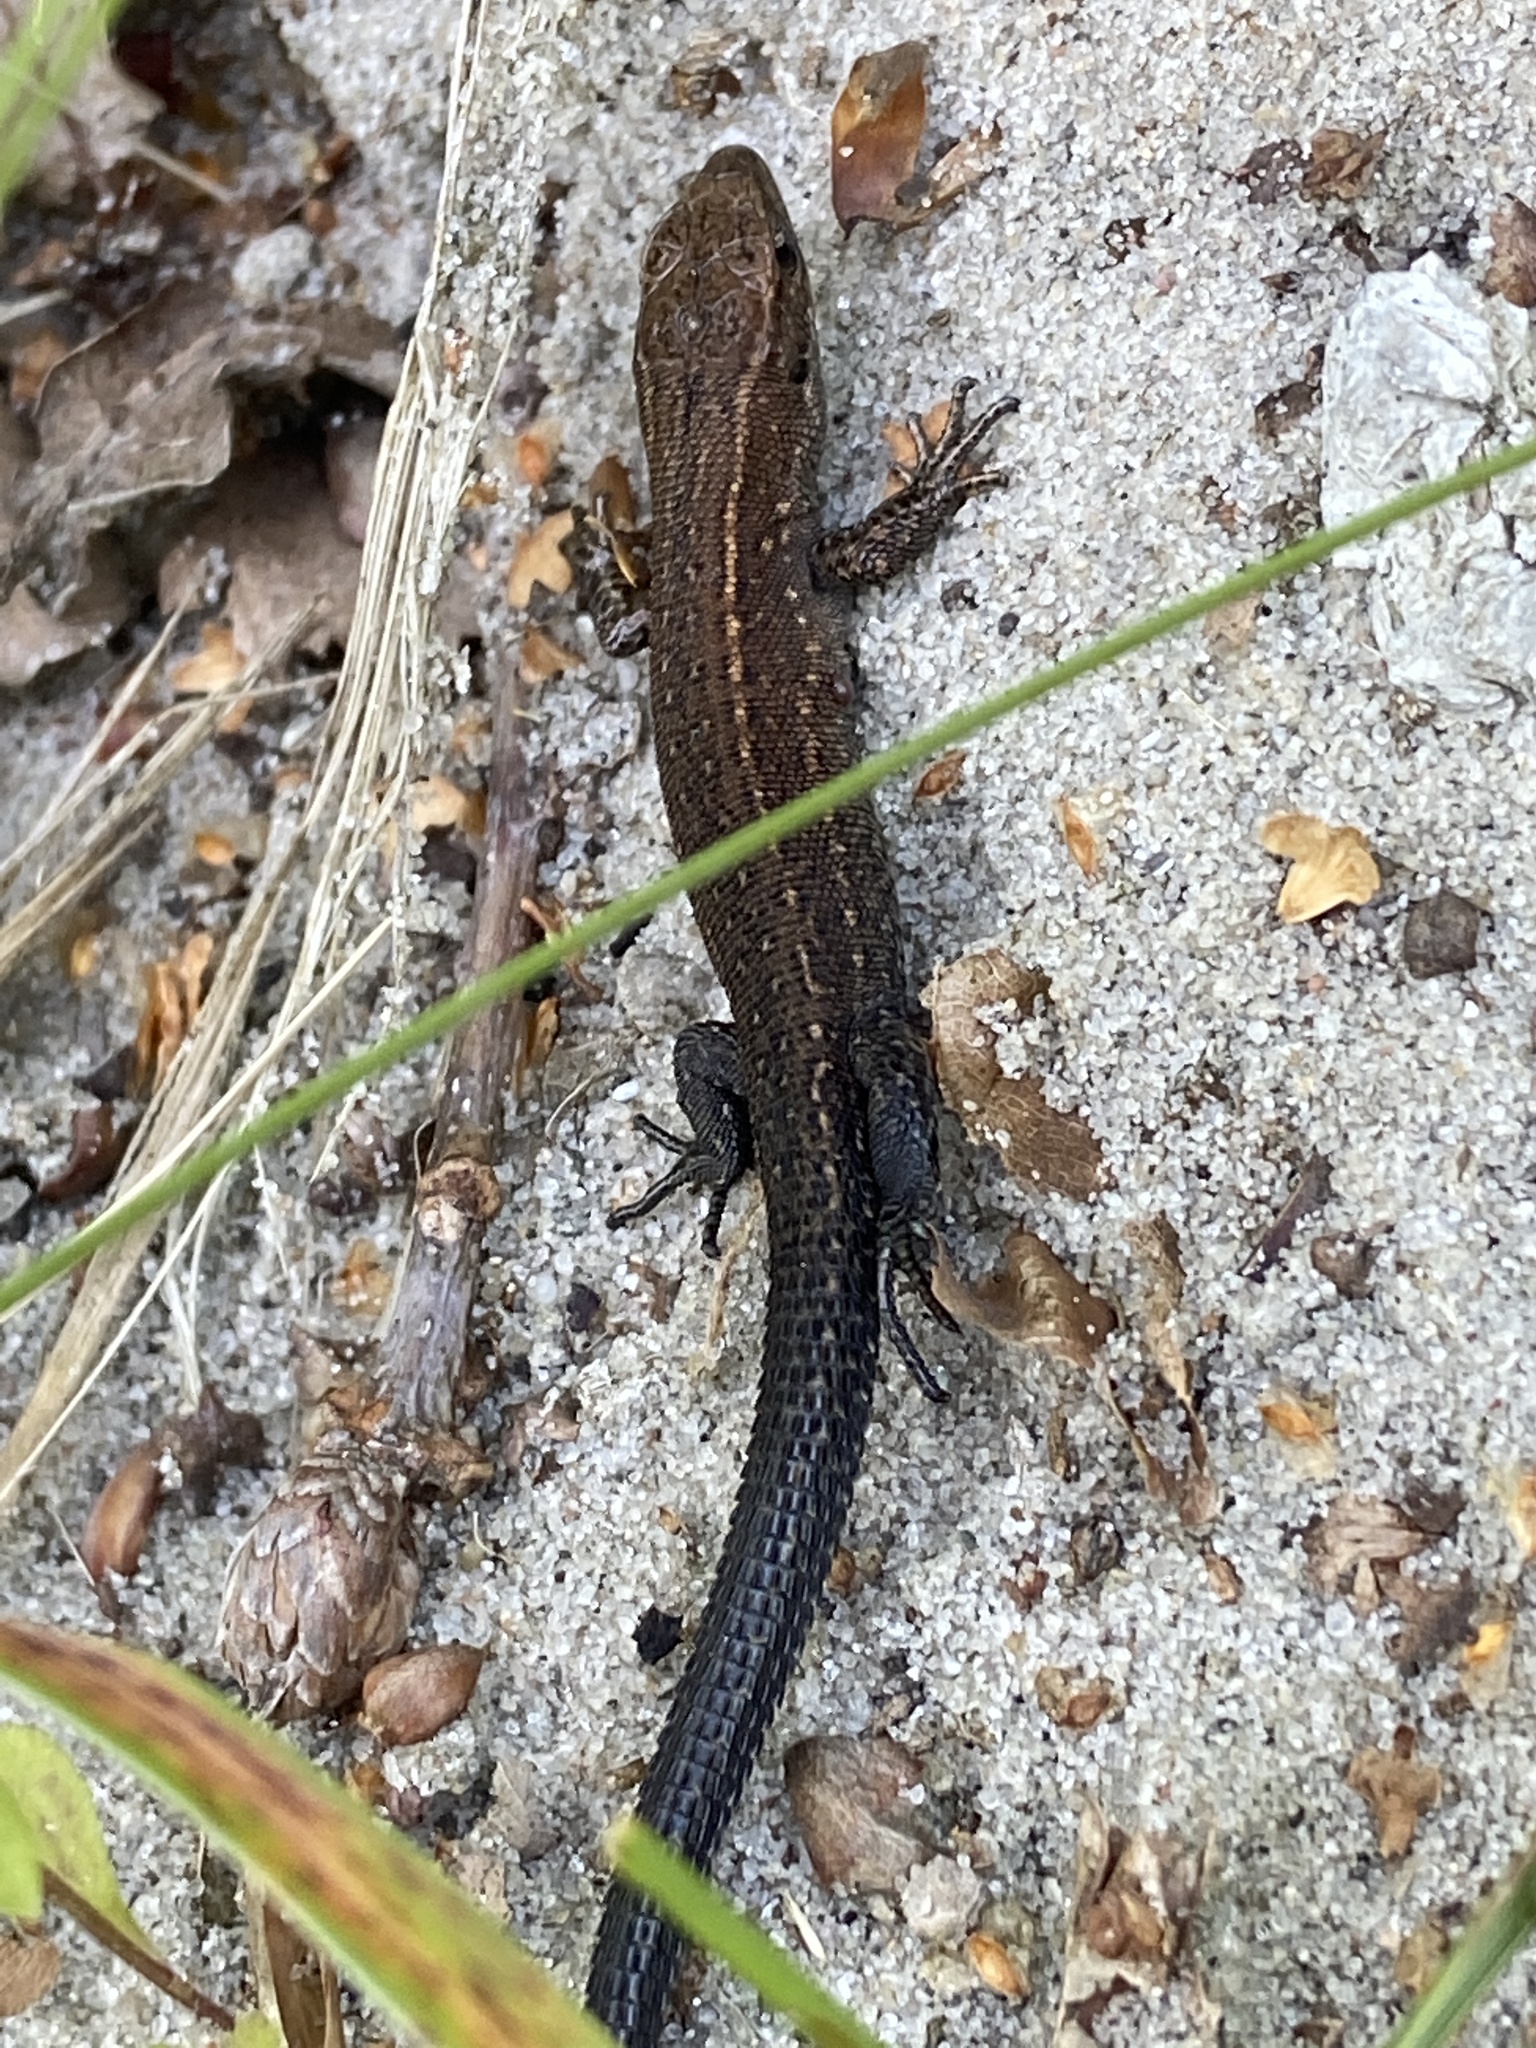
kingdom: Animalia
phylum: Chordata
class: Squamata
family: Lacertidae
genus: Zootoca
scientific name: Zootoca vivipara
